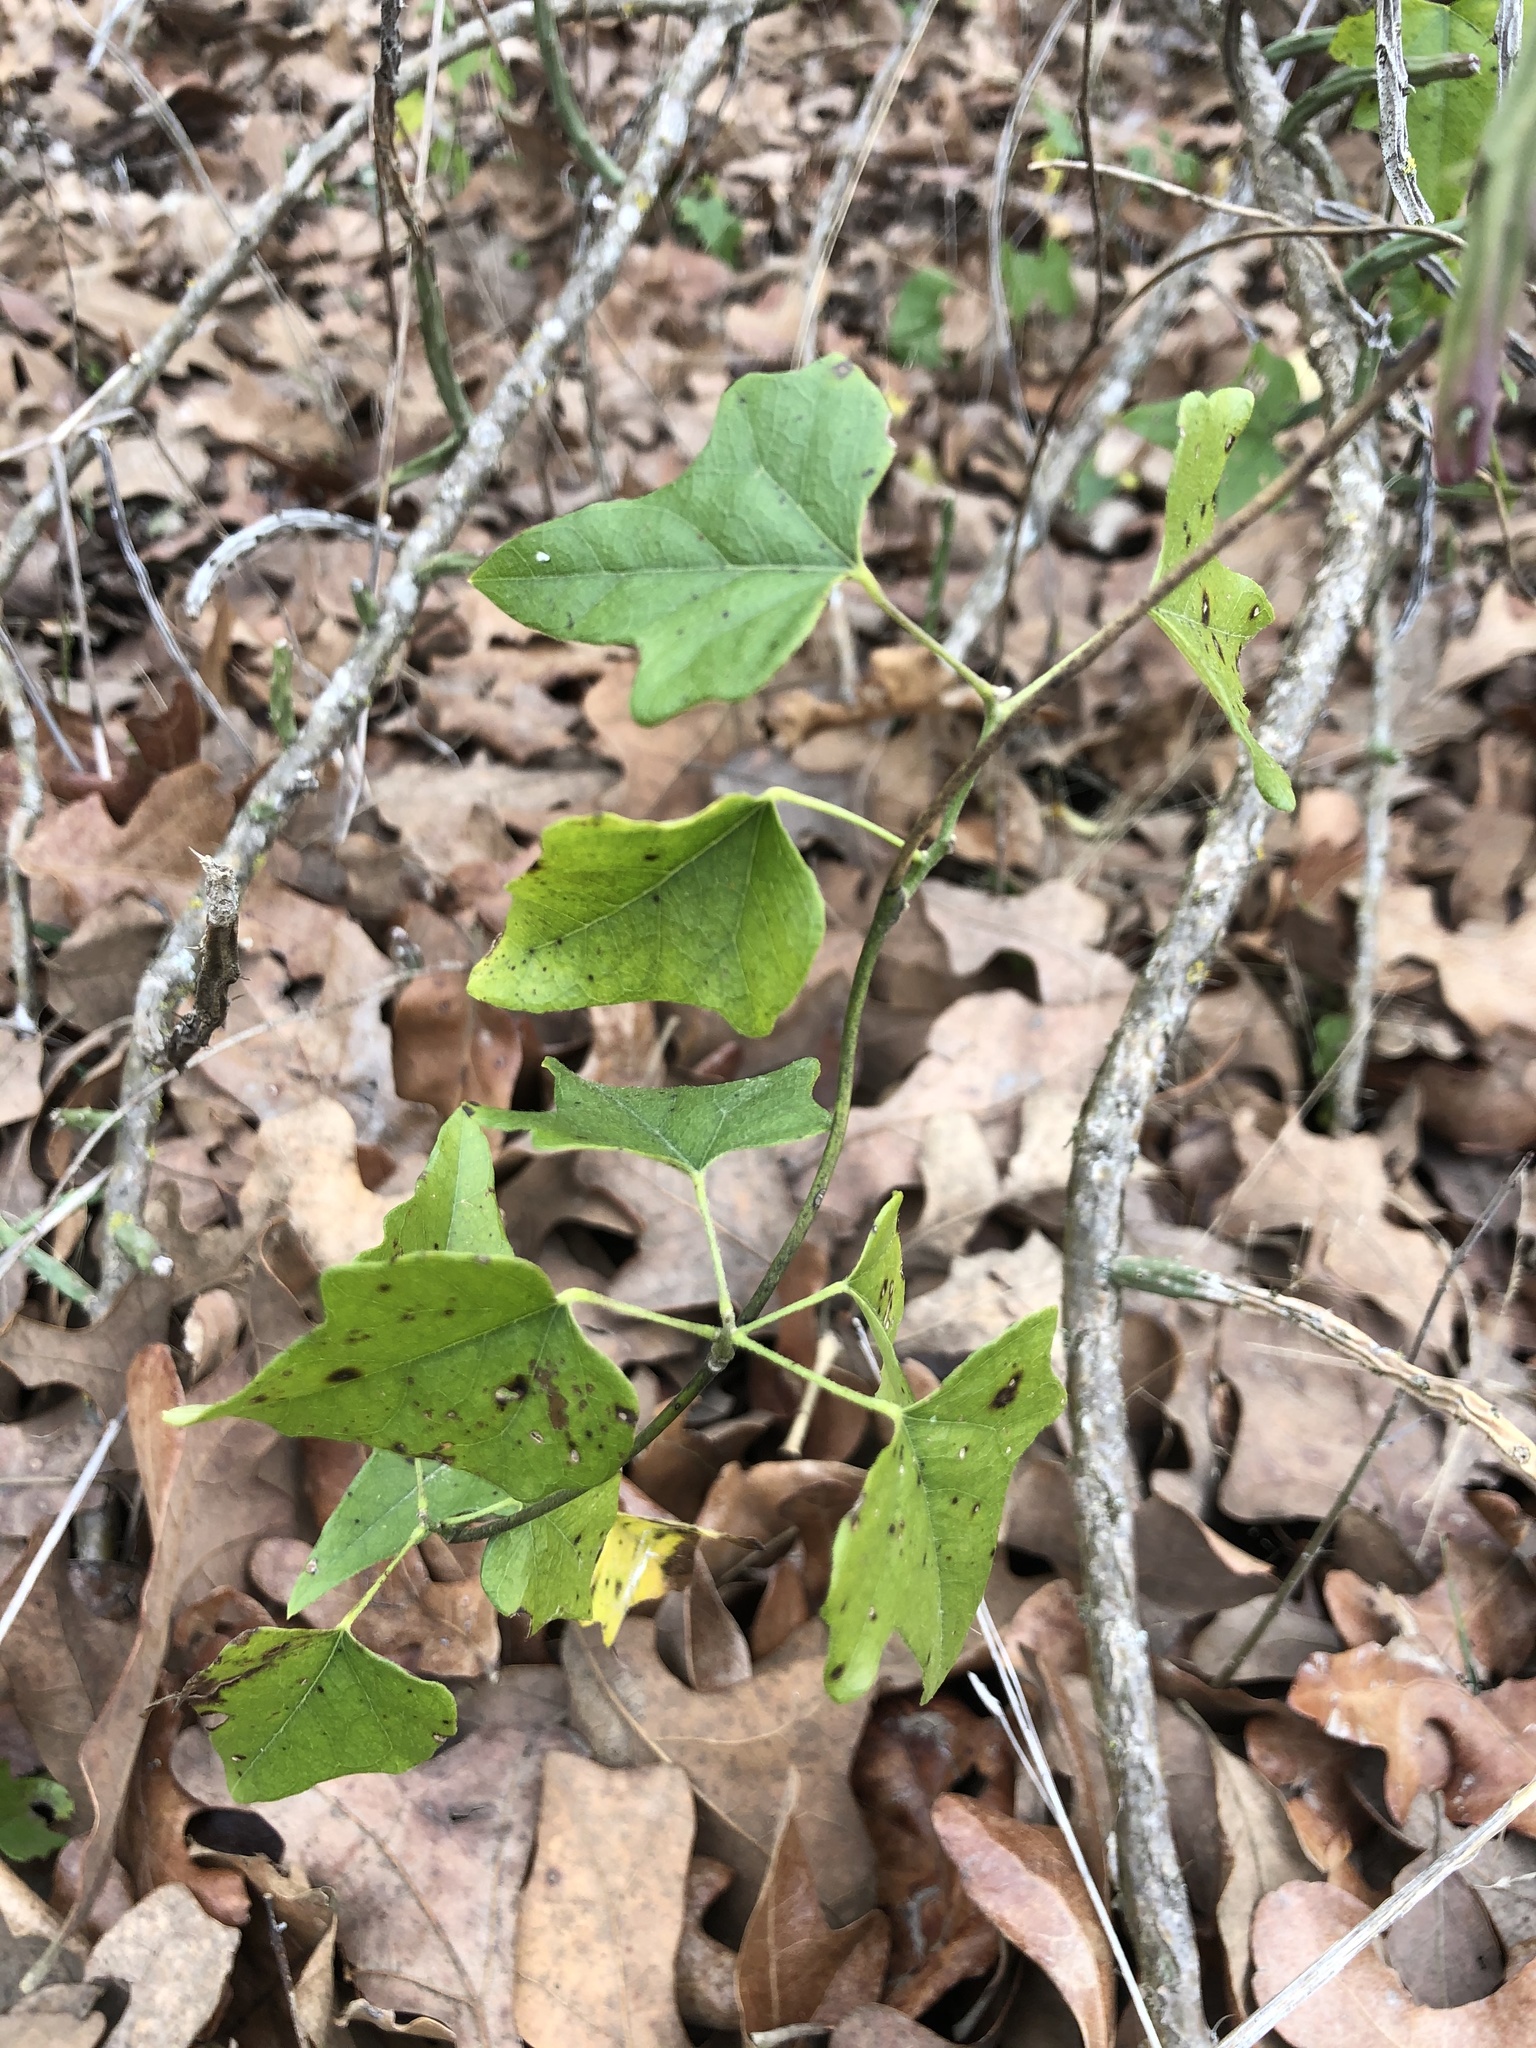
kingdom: Plantae
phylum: Tracheophyta
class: Magnoliopsida
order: Ranunculales
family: Menispermaceae
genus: Cocculus
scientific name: Cocculus carolinus
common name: Carolina moonseed
